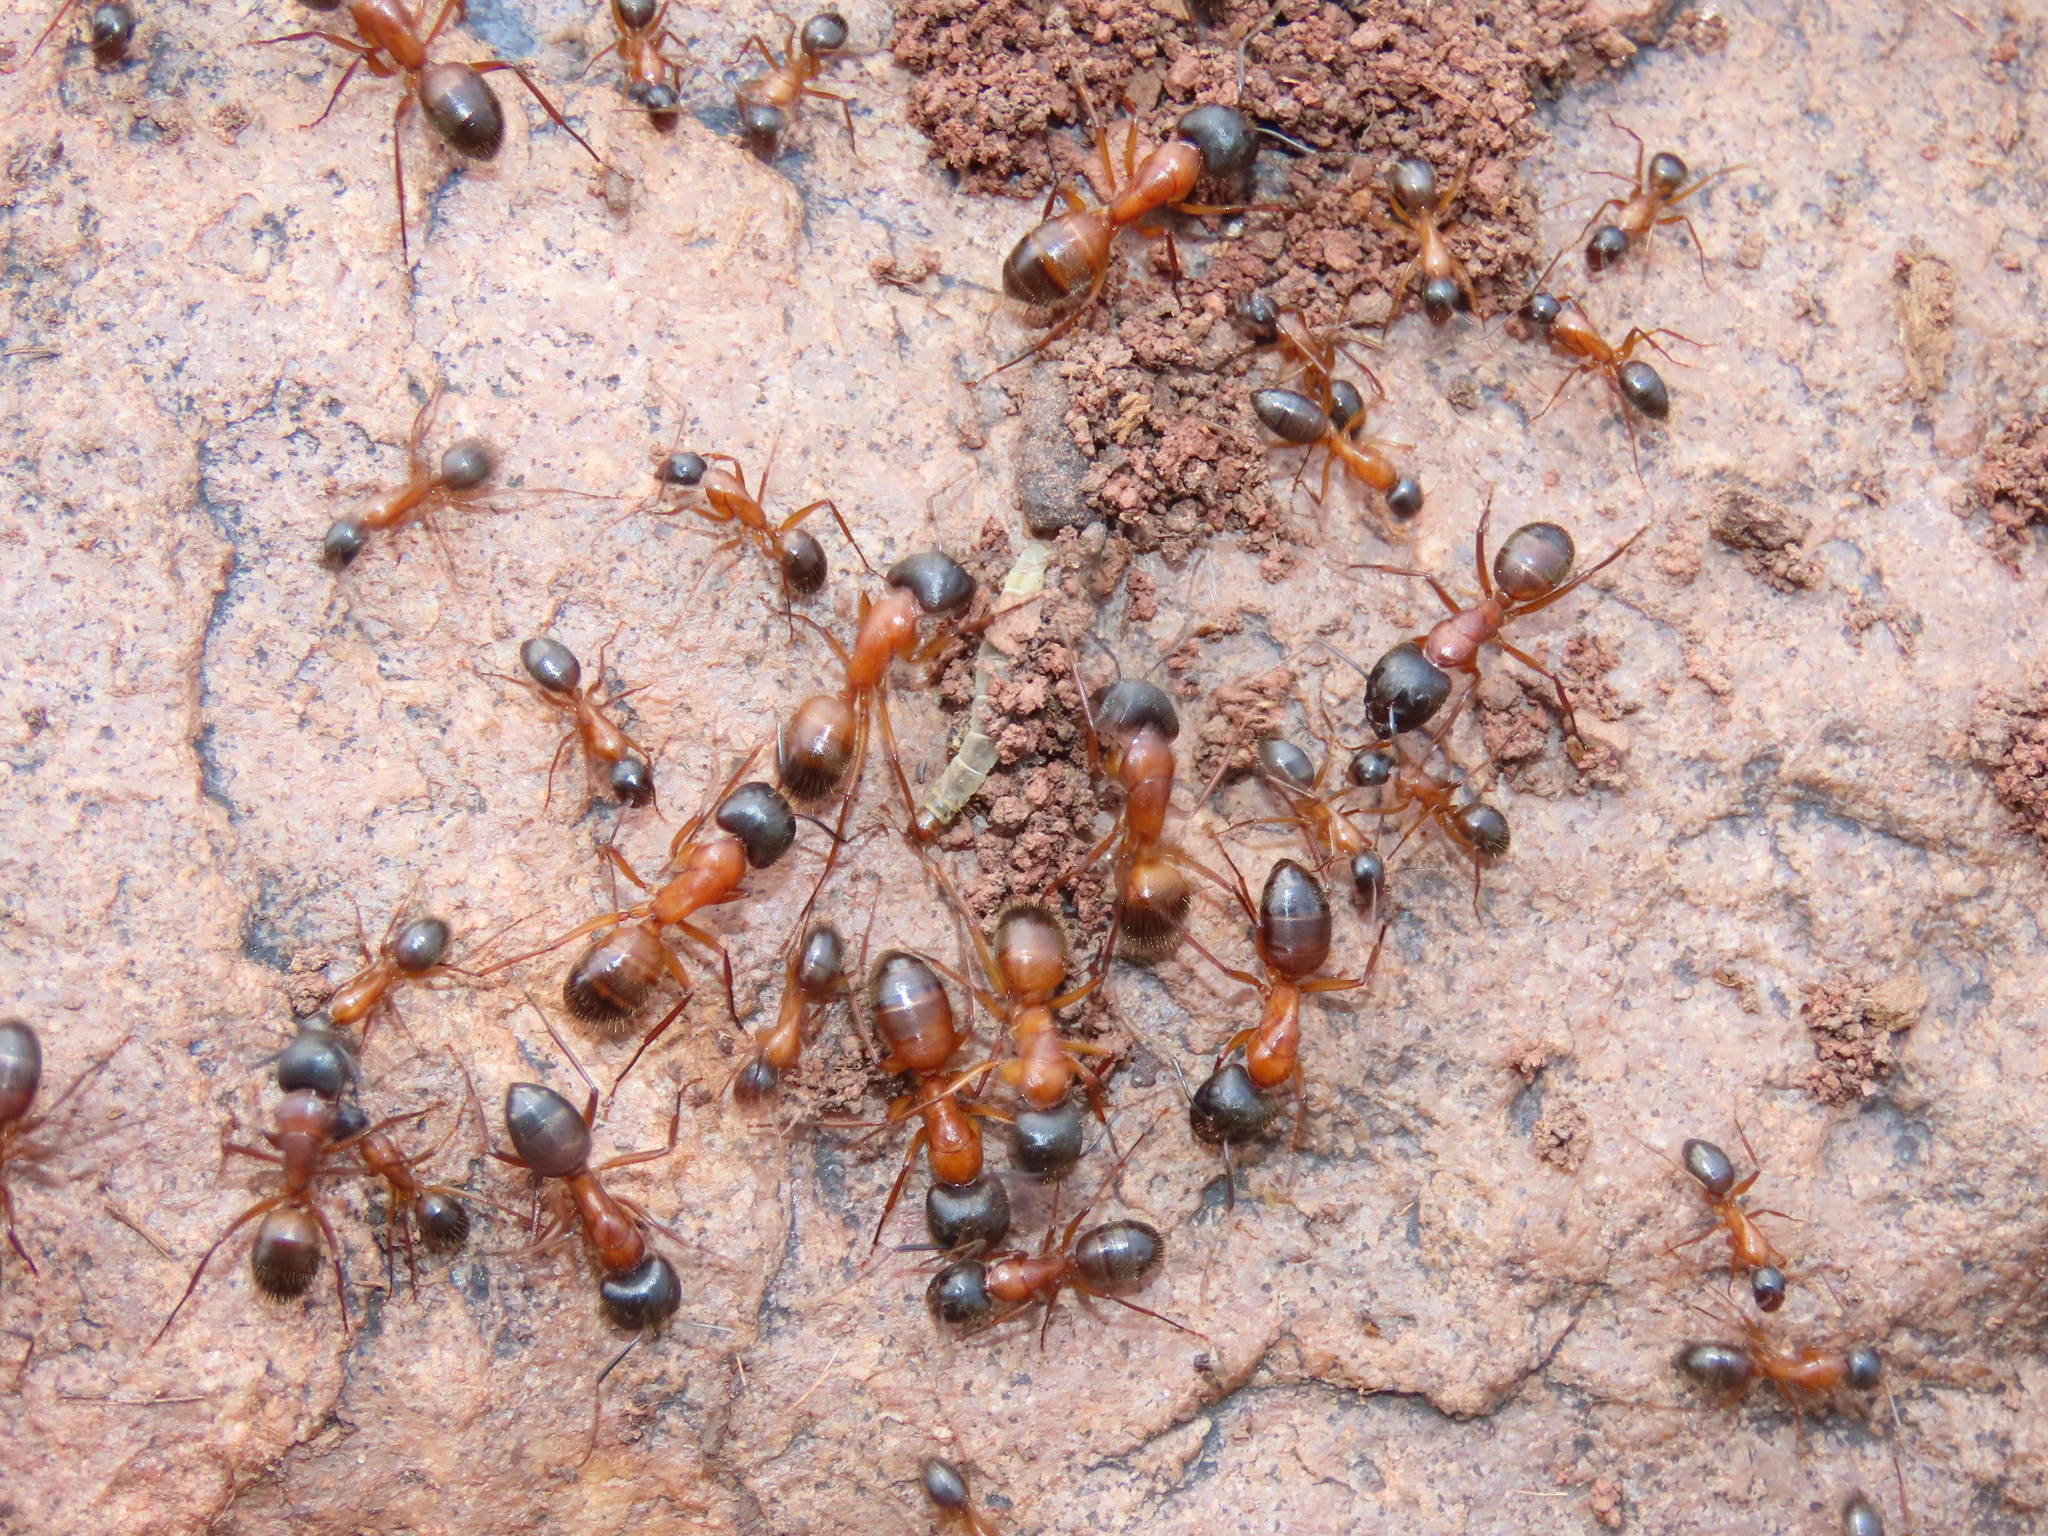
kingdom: Animalia
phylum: Arthropoda
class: Insecta
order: Hymenoptera
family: Formicidae
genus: Camponotus
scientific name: Camponotus semitestaceus
